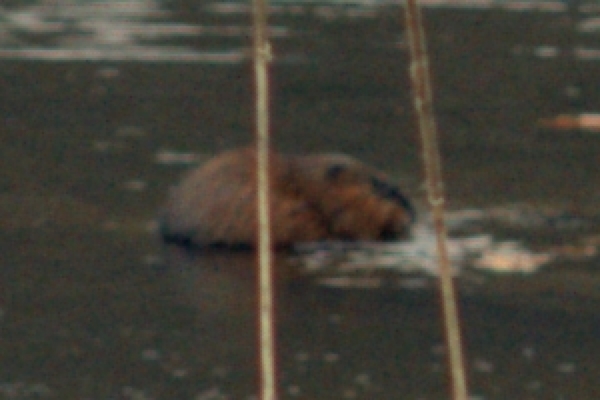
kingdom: Animalia
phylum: Chordata
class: Mammalia
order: Rodentia
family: Cricetidae
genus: Ondatra
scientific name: Ondatra zibethicus
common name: Muskrat
